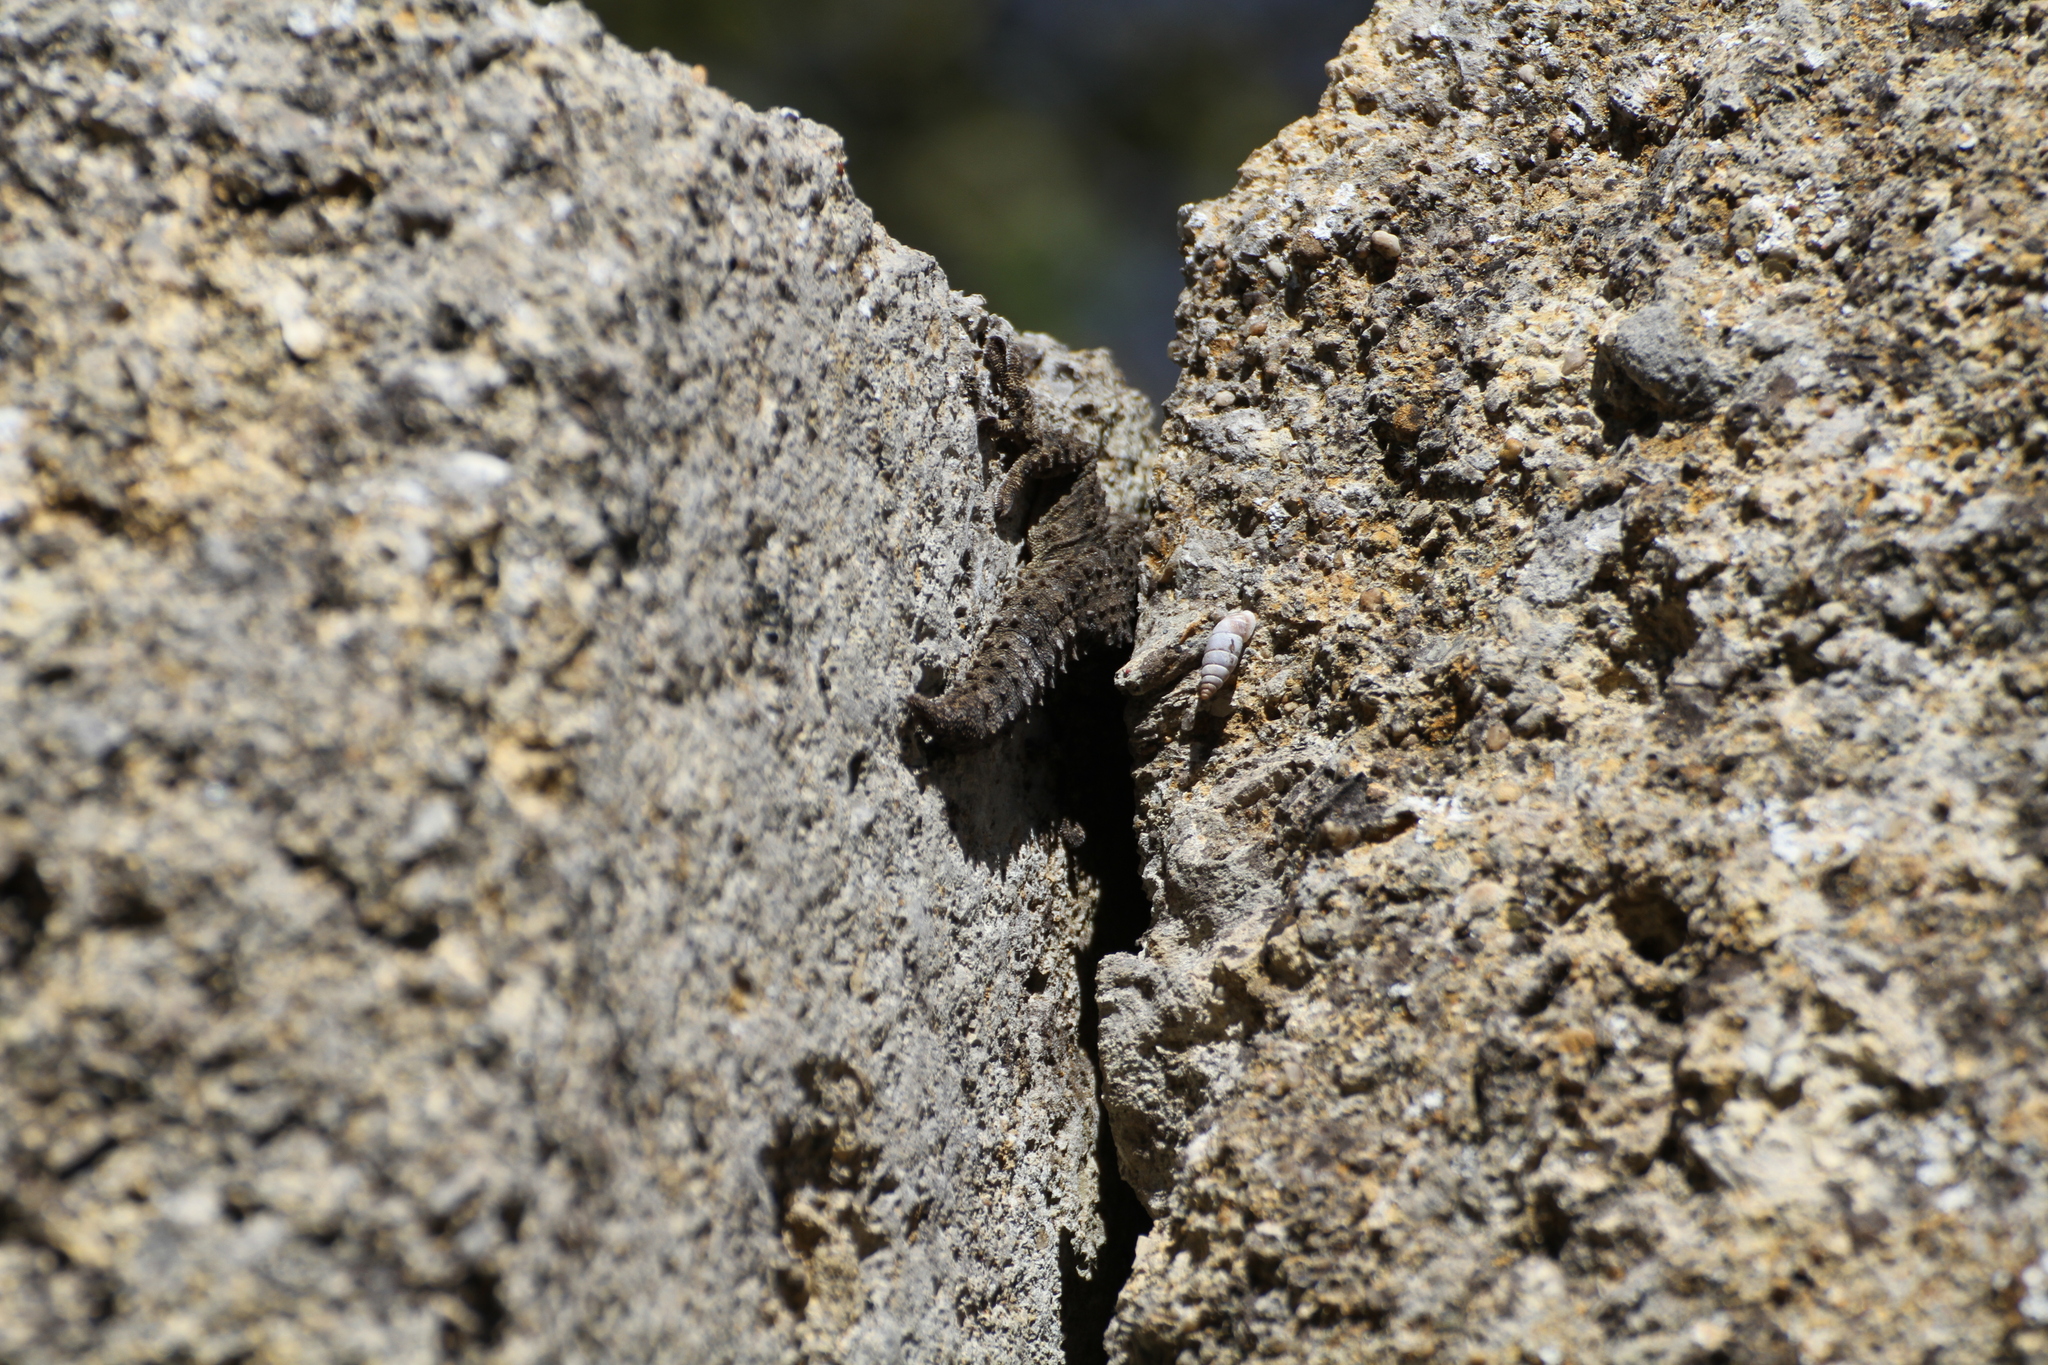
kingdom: Animalia
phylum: Chordata
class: Squamata
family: Phyllodactylidae
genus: Tarentola
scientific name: Tarentola mauritanica
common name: Moorish gecko
